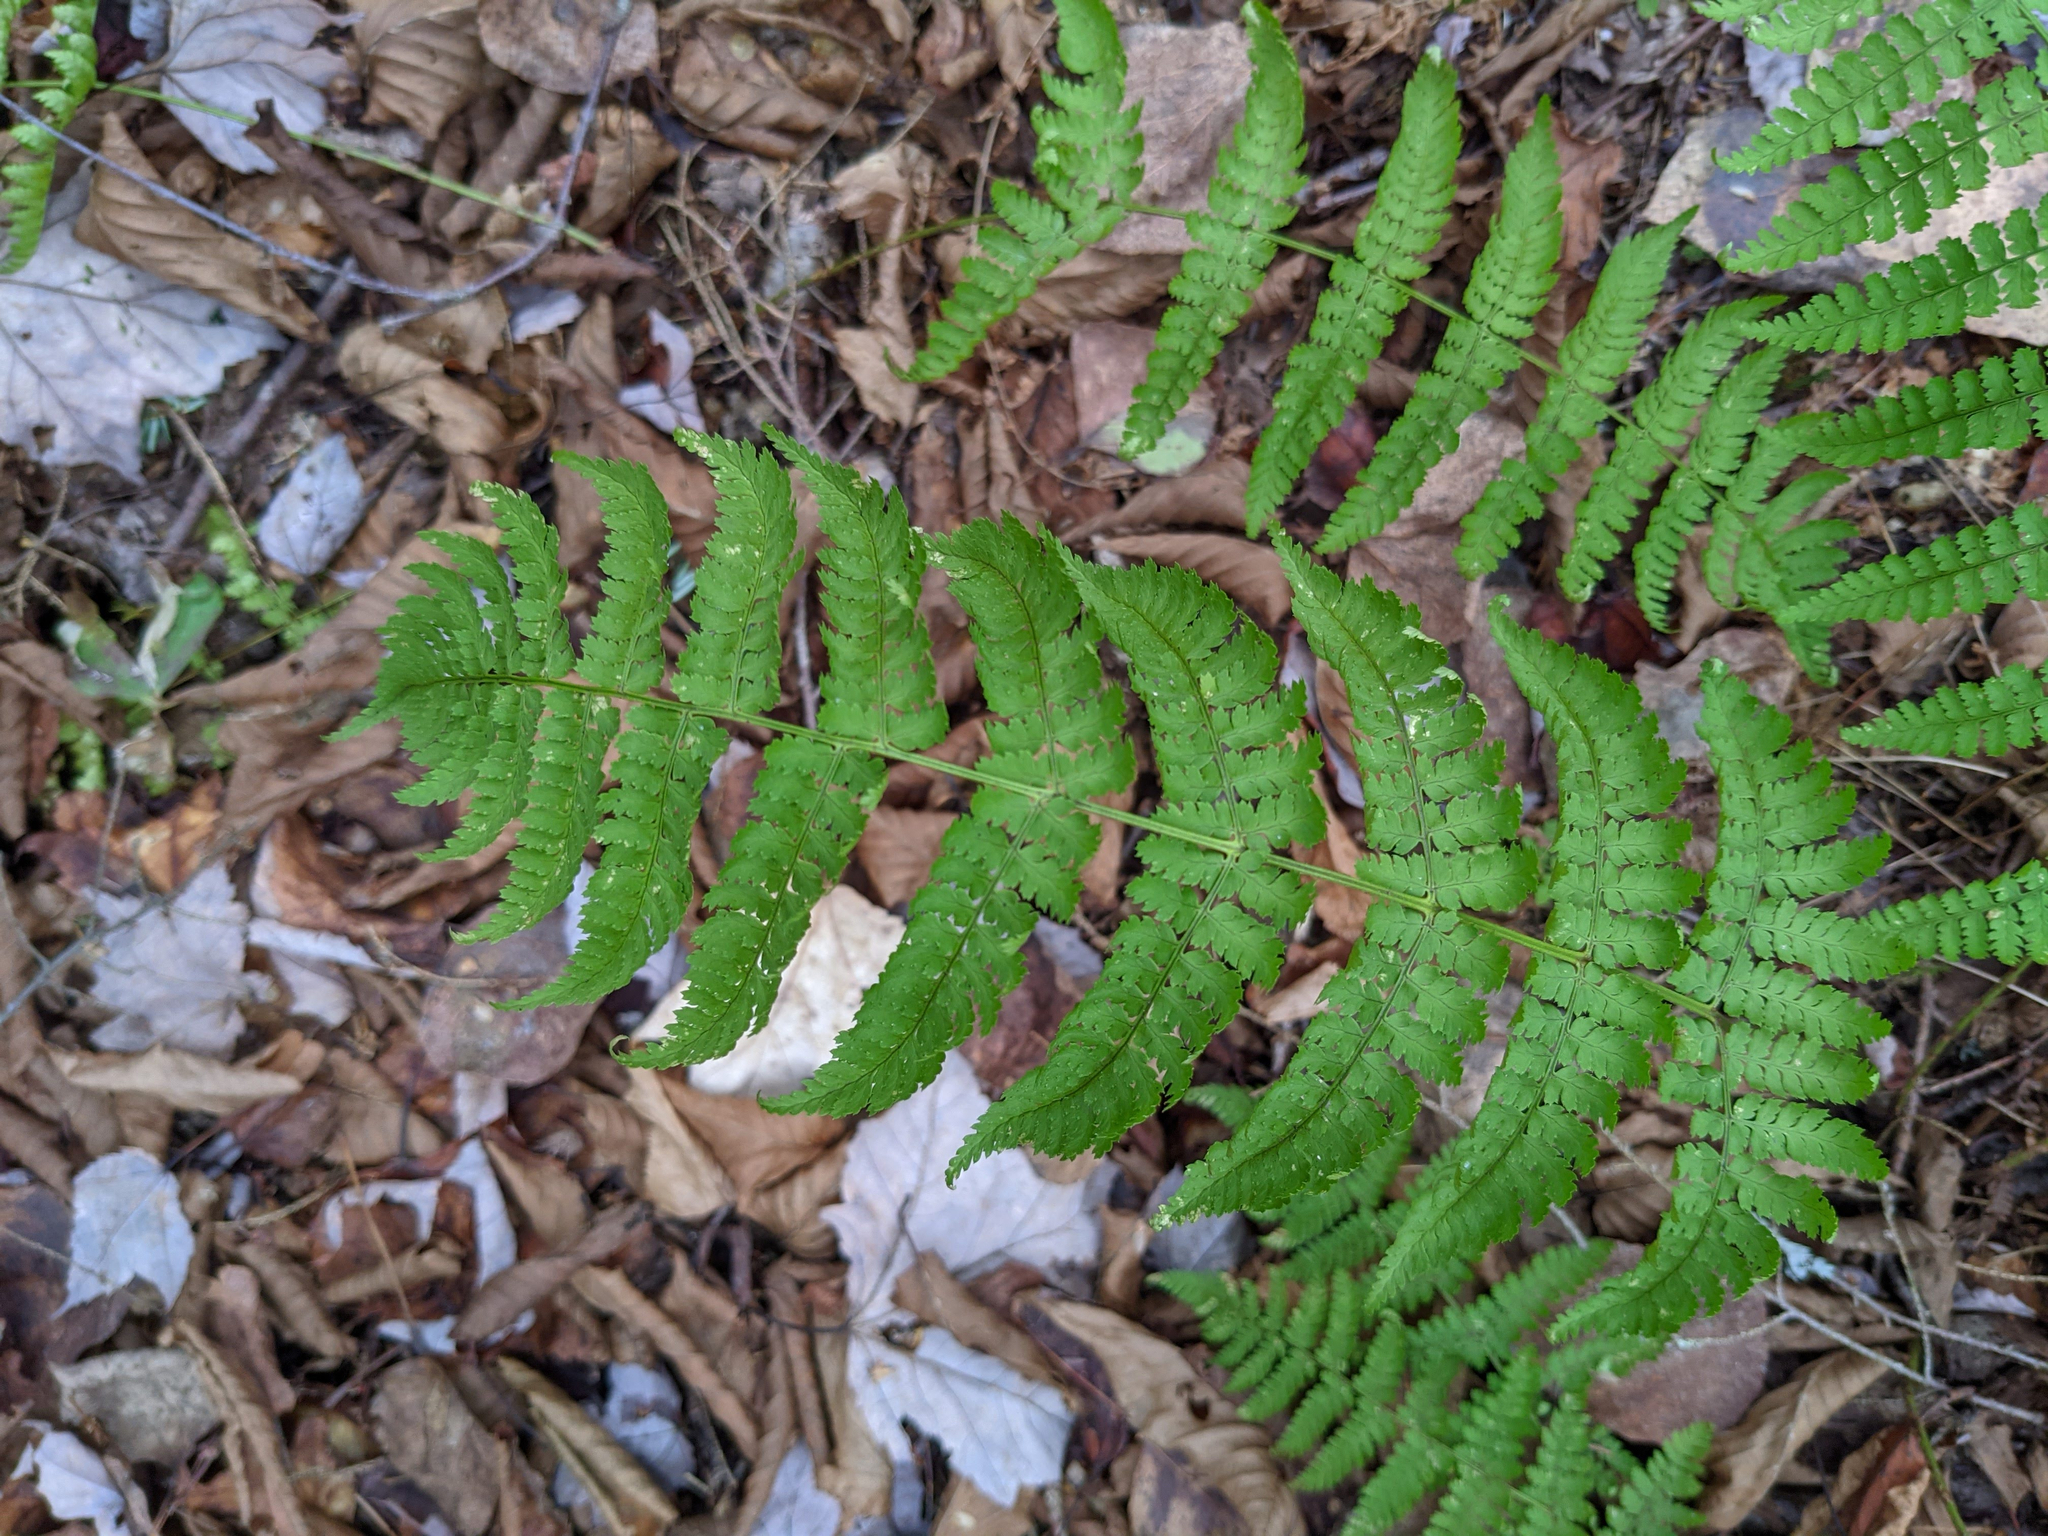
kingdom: Plantae
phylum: Tracheophyta
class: Polypodiopsida
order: Polypodiales
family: Dryopteridaceae
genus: Dryopteris
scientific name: Dryopteris intermedia
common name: Evergreen wood fern
